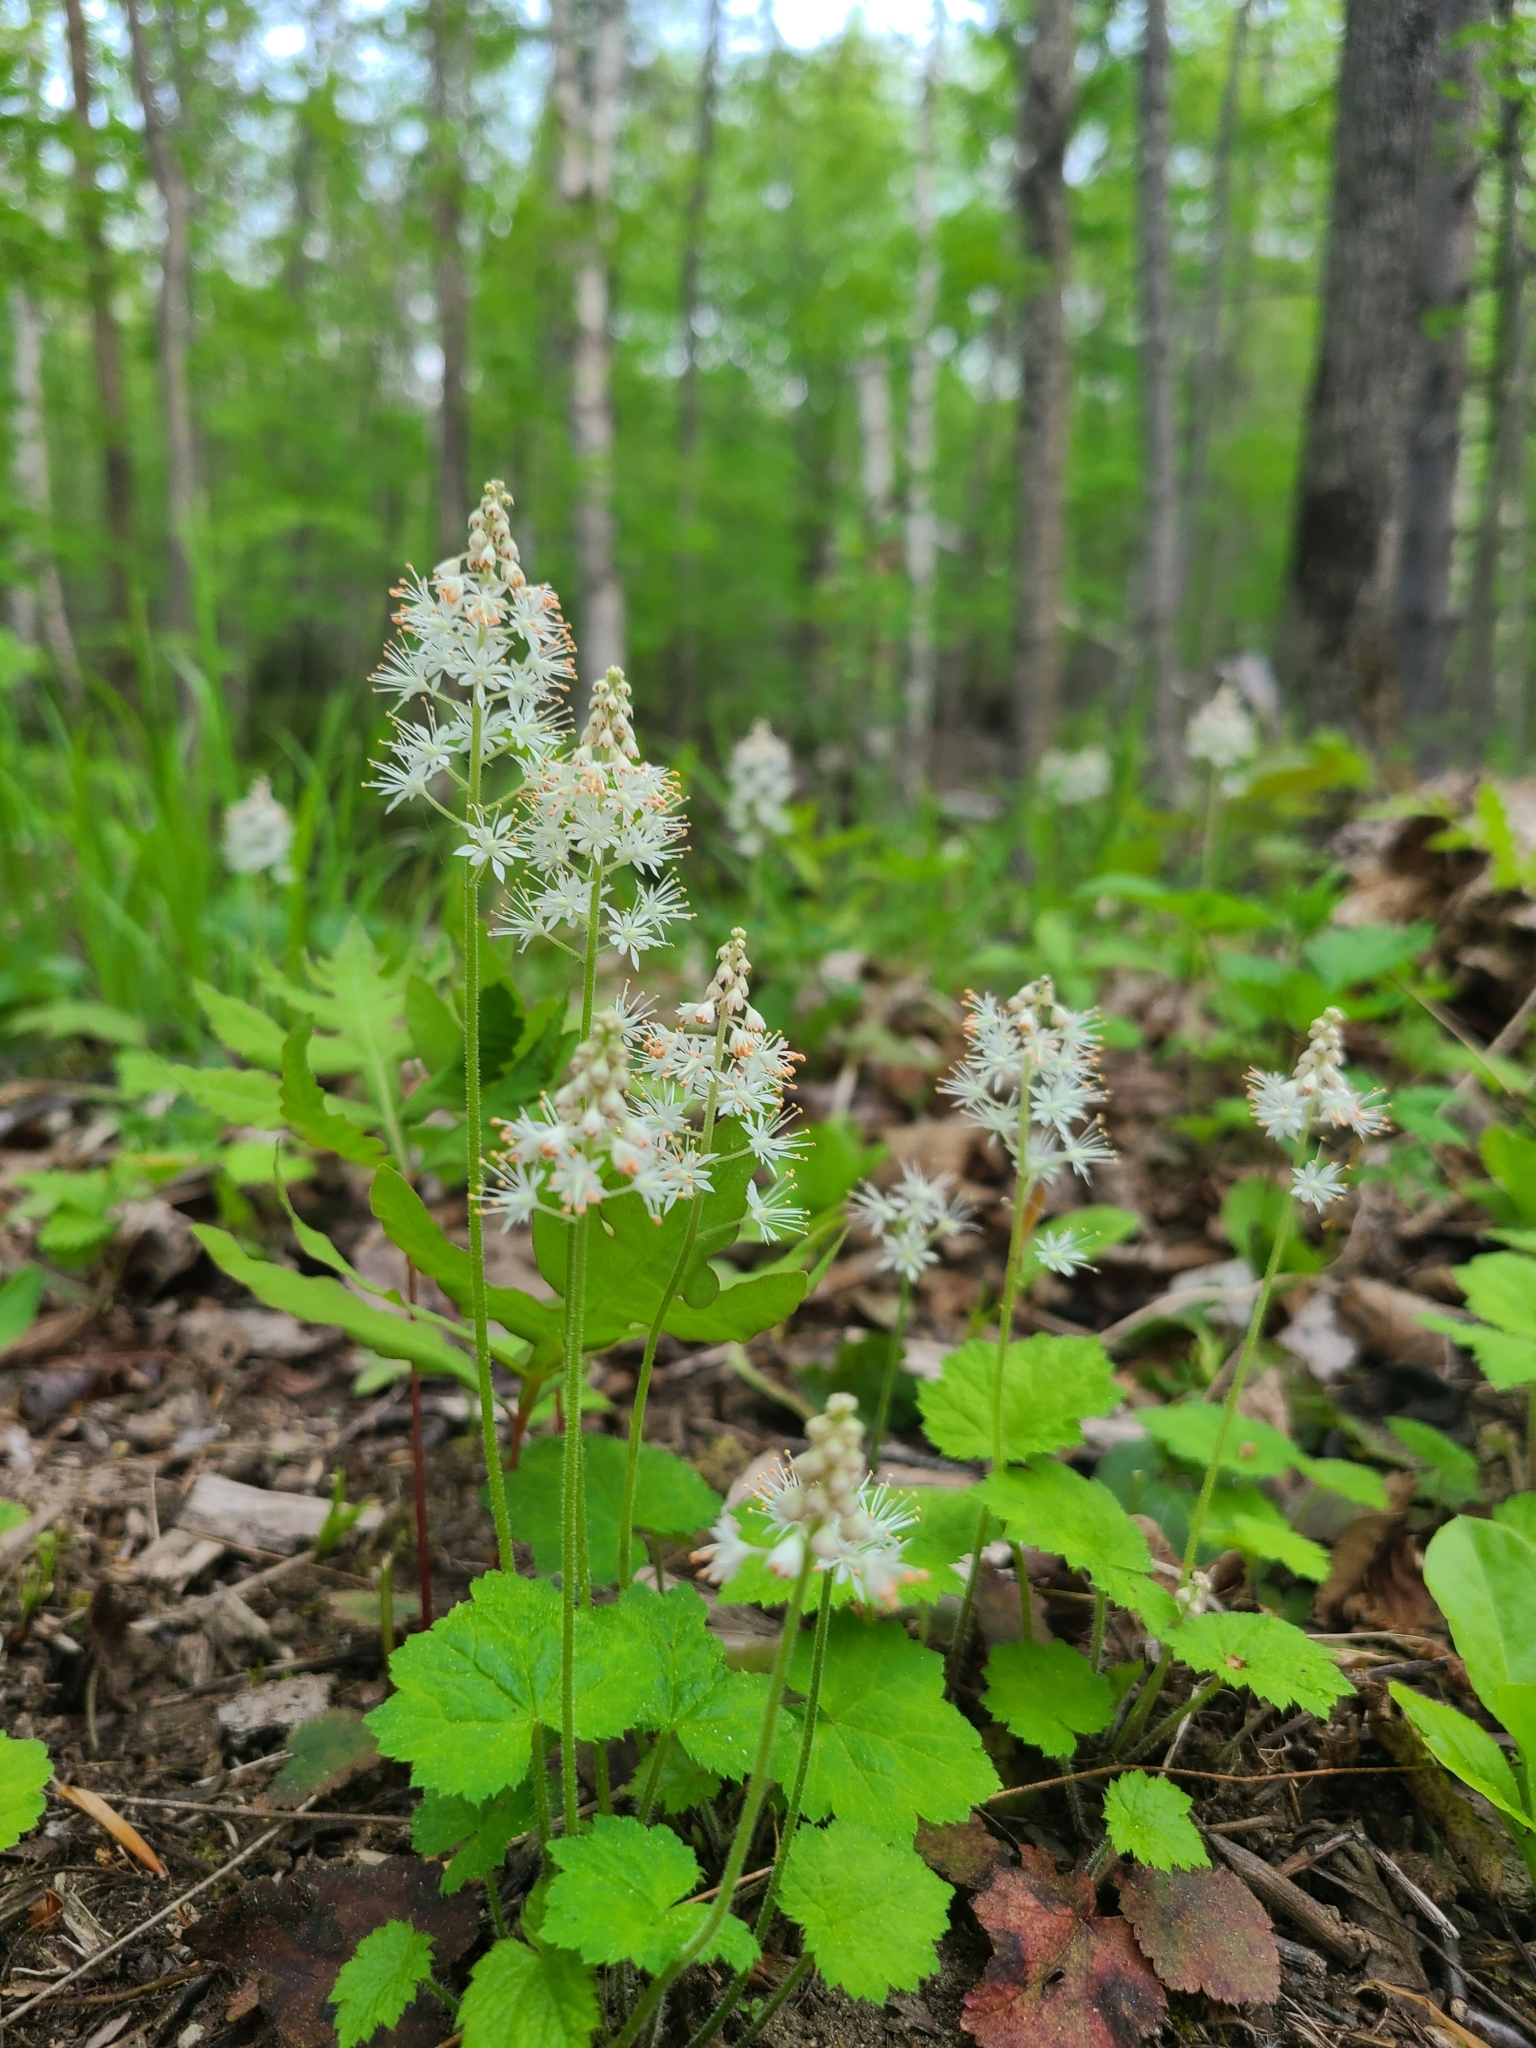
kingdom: Plantae
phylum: Tracheophyta
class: Magnoliopsida
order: Saxifragales
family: Saxifragaceae
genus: Tiarella
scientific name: Tiarella stolonifera
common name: Stoloniferous foamflower
